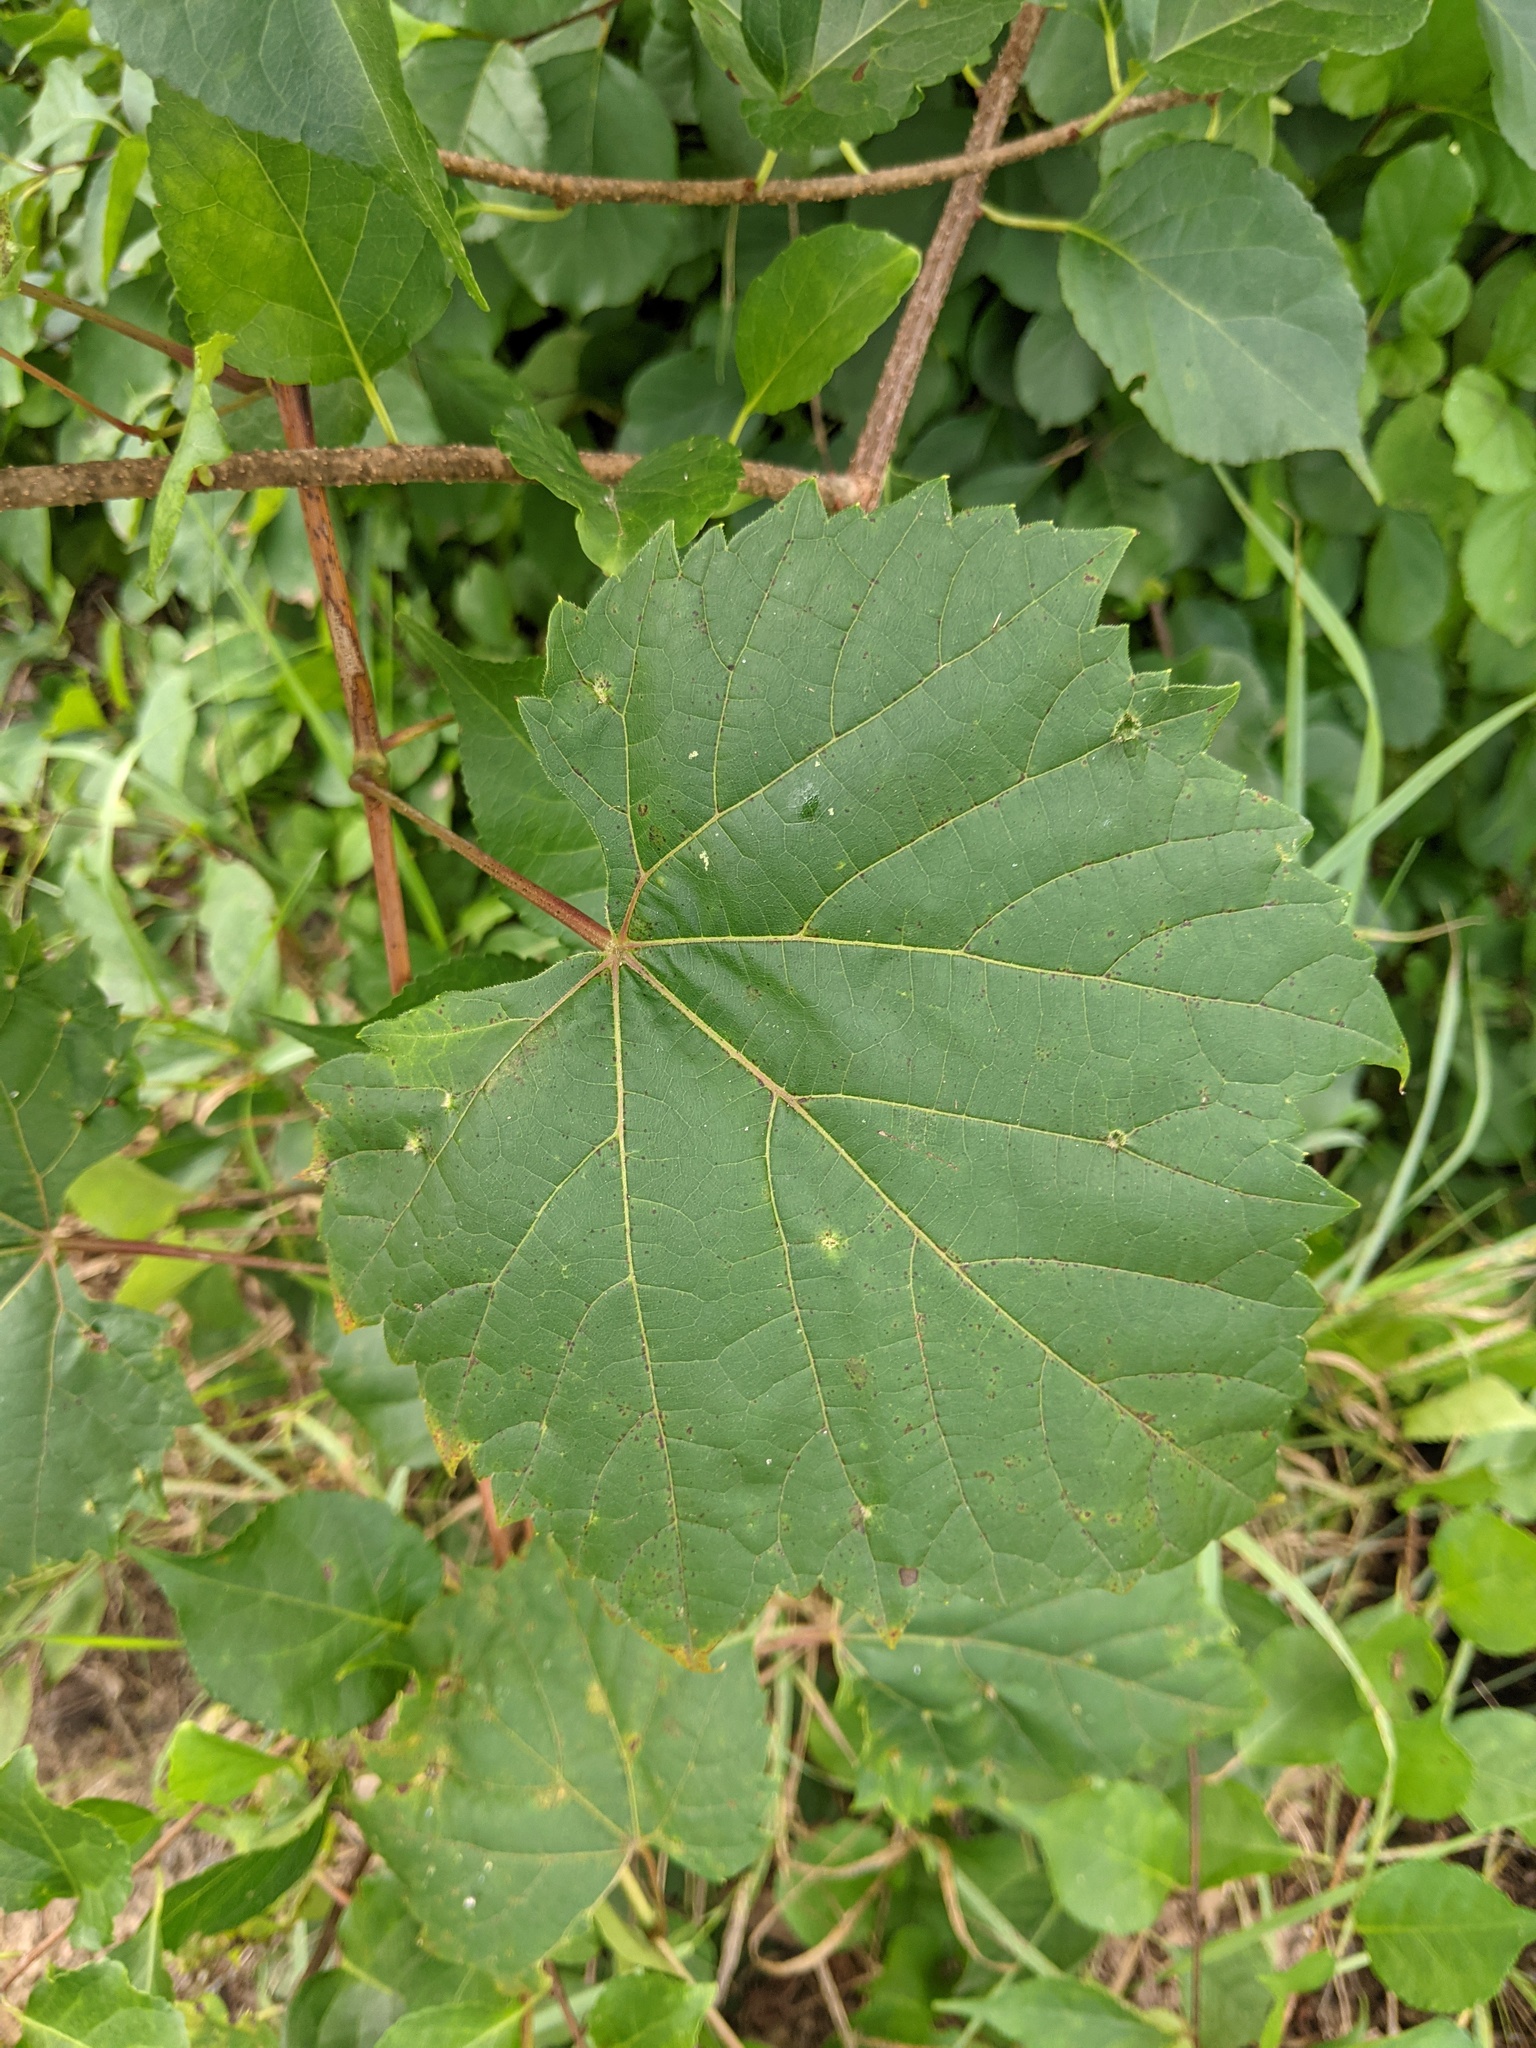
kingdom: Plantae
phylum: Tracheophyta
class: Magnoliopsida
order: Vitales
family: Vitaceae
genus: Vitis
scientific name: Vitis riparia
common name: Frost grape
